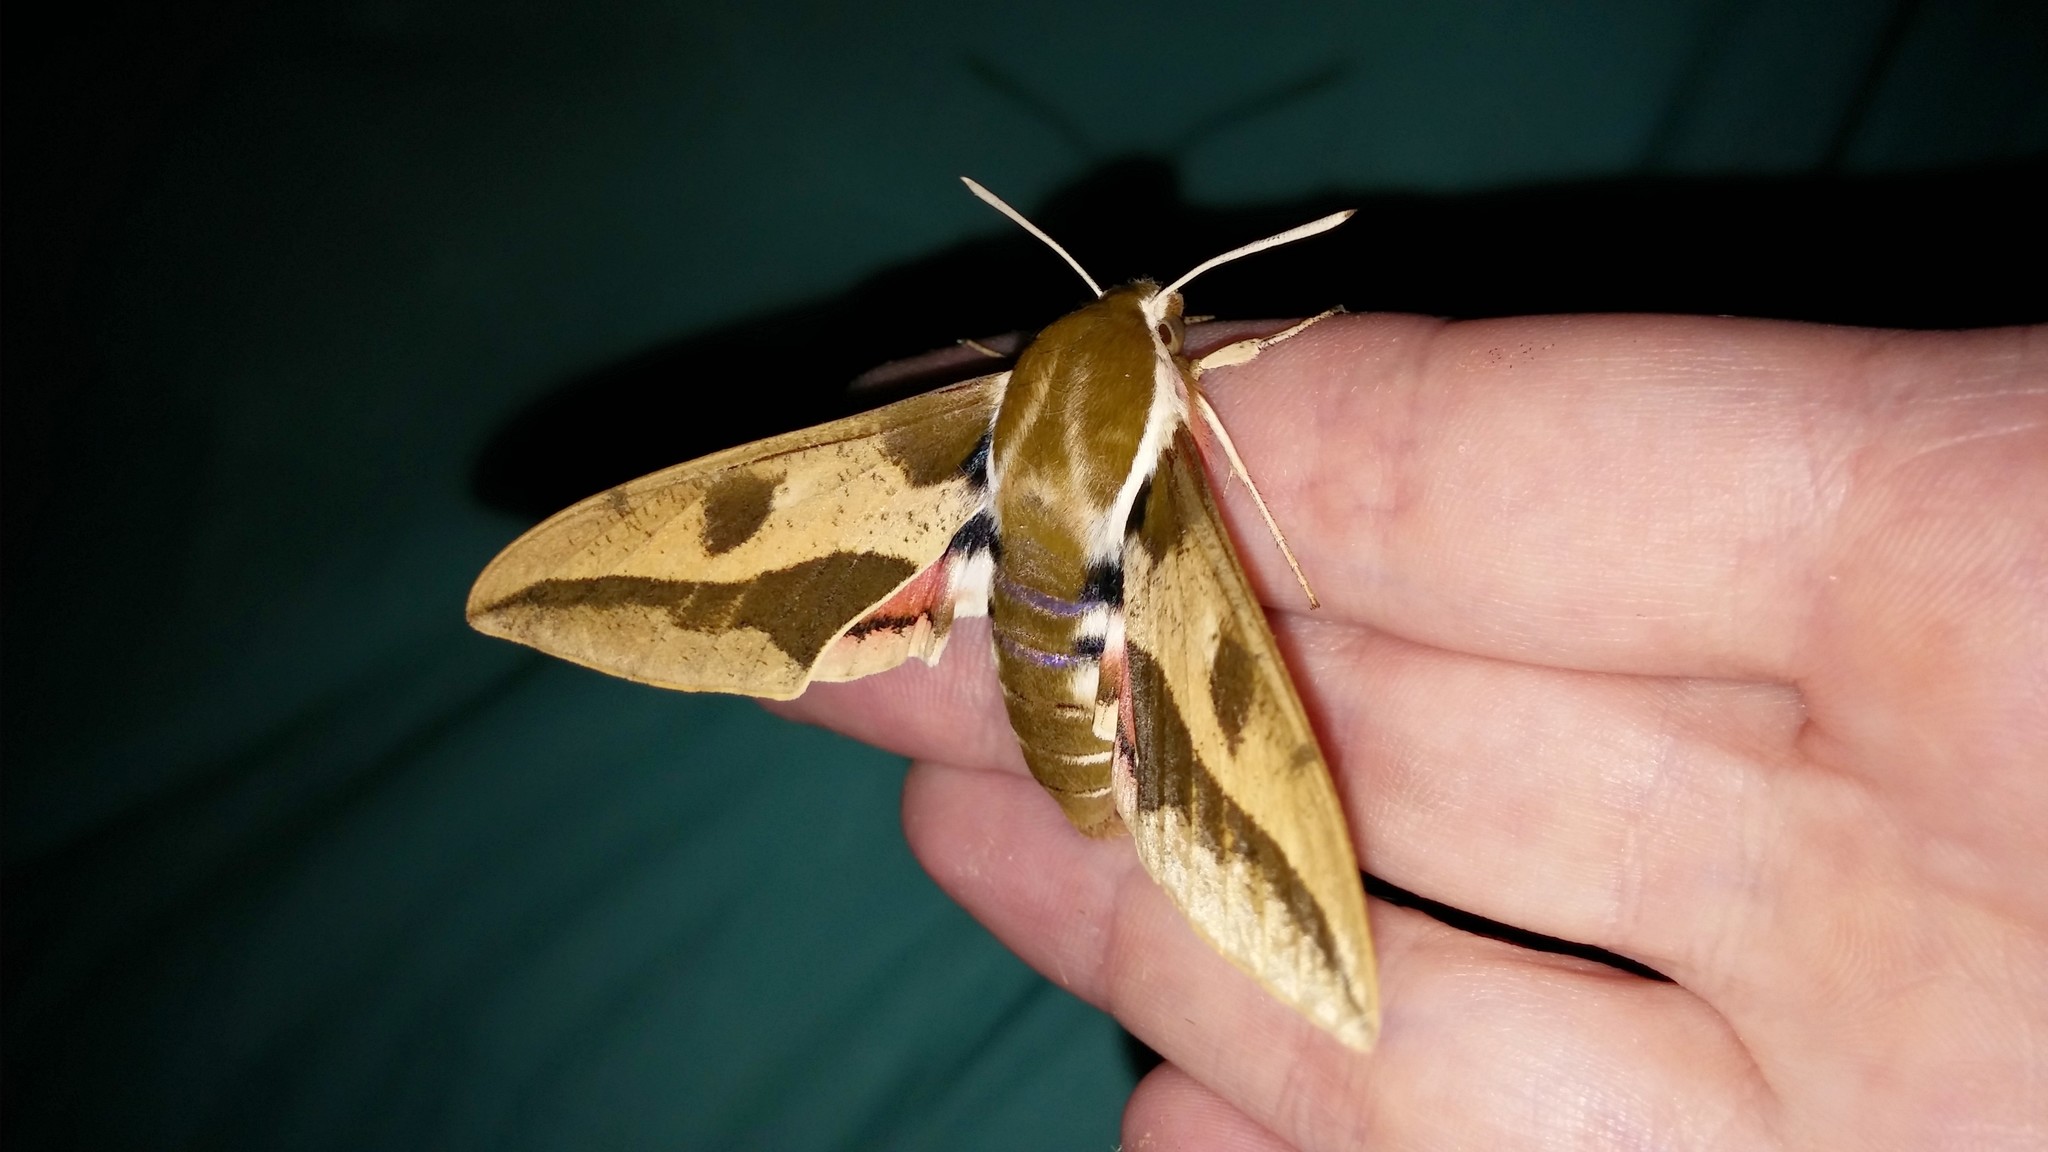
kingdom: Animalia
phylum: Arthropoda
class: Insecta
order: Lepidoptera
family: Sphingidae
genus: Hyles
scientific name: Hyles euphorbiae
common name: Spurge hawk-moth
